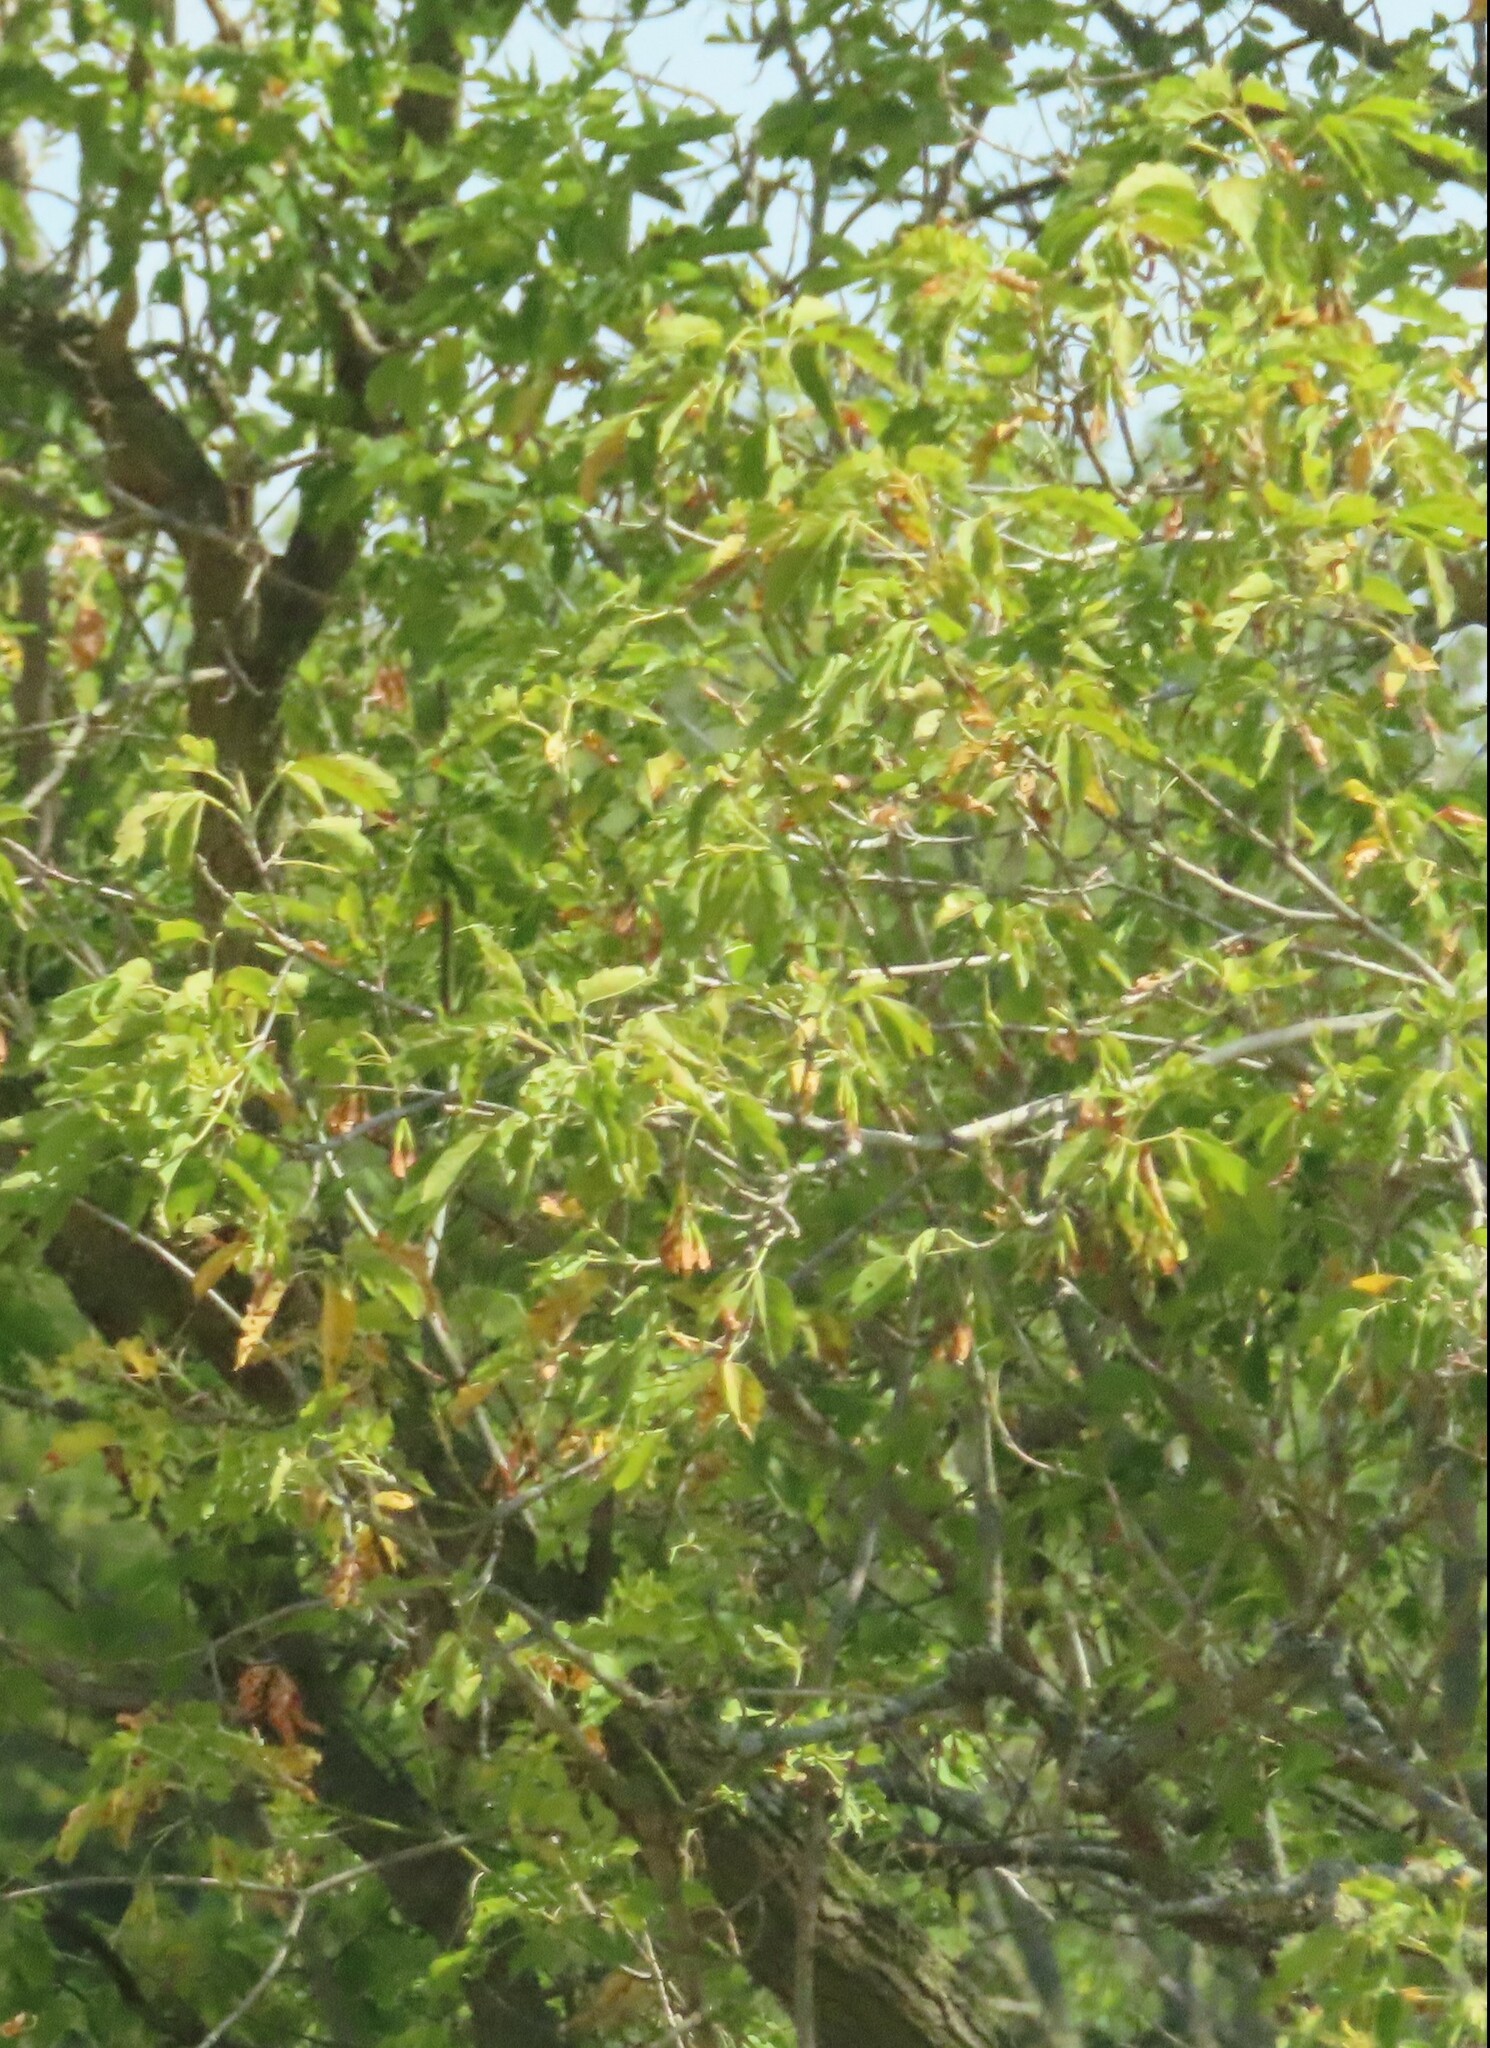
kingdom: Plantae
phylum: Tracheophyta
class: Magnoliopsida
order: Sapindales
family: Sapindaceae
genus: Acer
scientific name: Acer negundo
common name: Ashleaf maple
